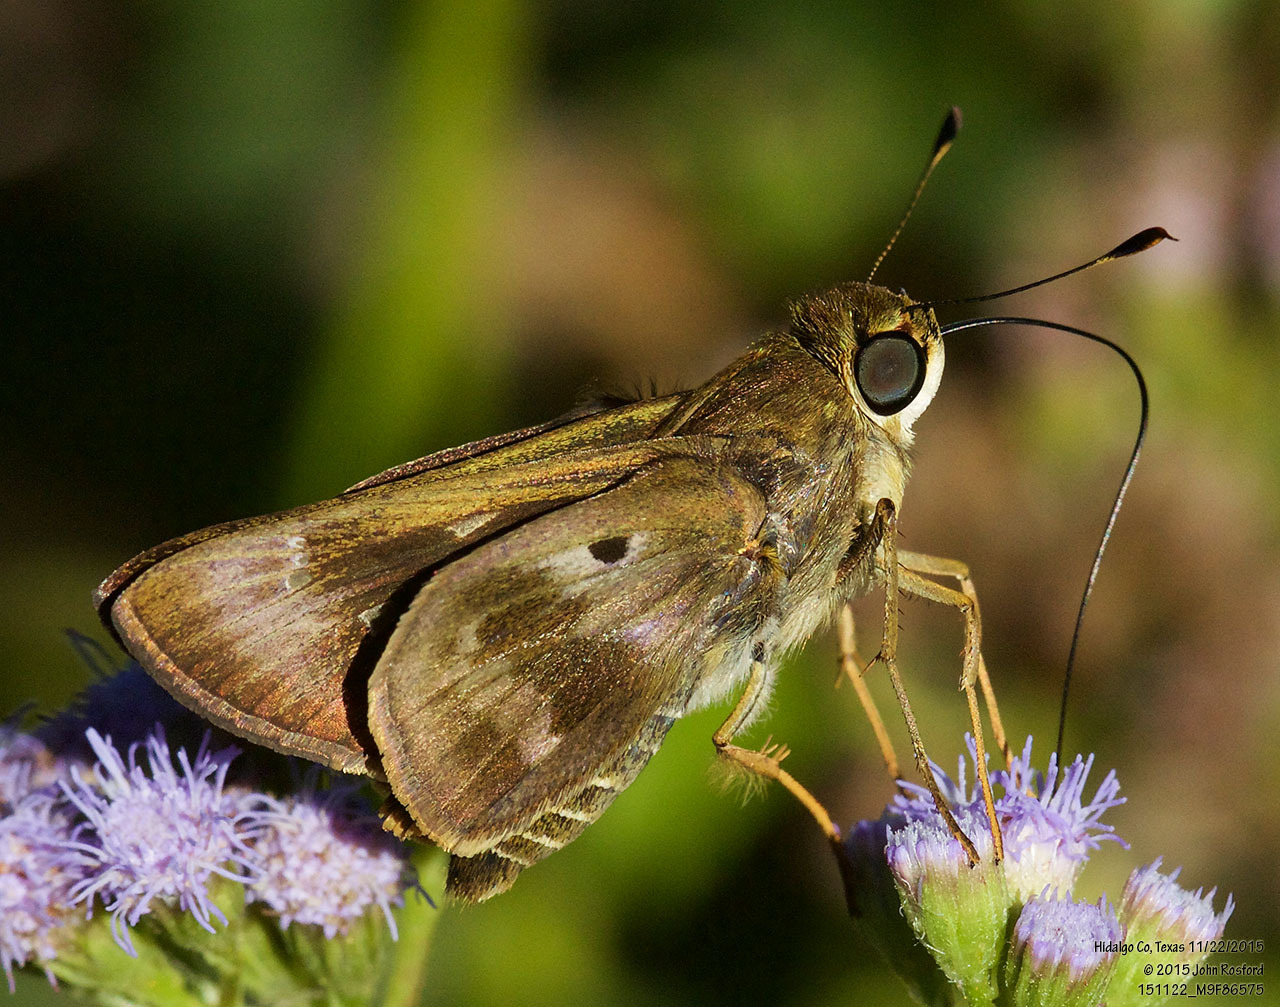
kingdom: Animalia
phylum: Arthropoda
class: Insecta
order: Lepidoptera
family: Hesperiidae
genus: Nyctelius
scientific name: Nyctelius nyctelius
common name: Violet-banded skipper
